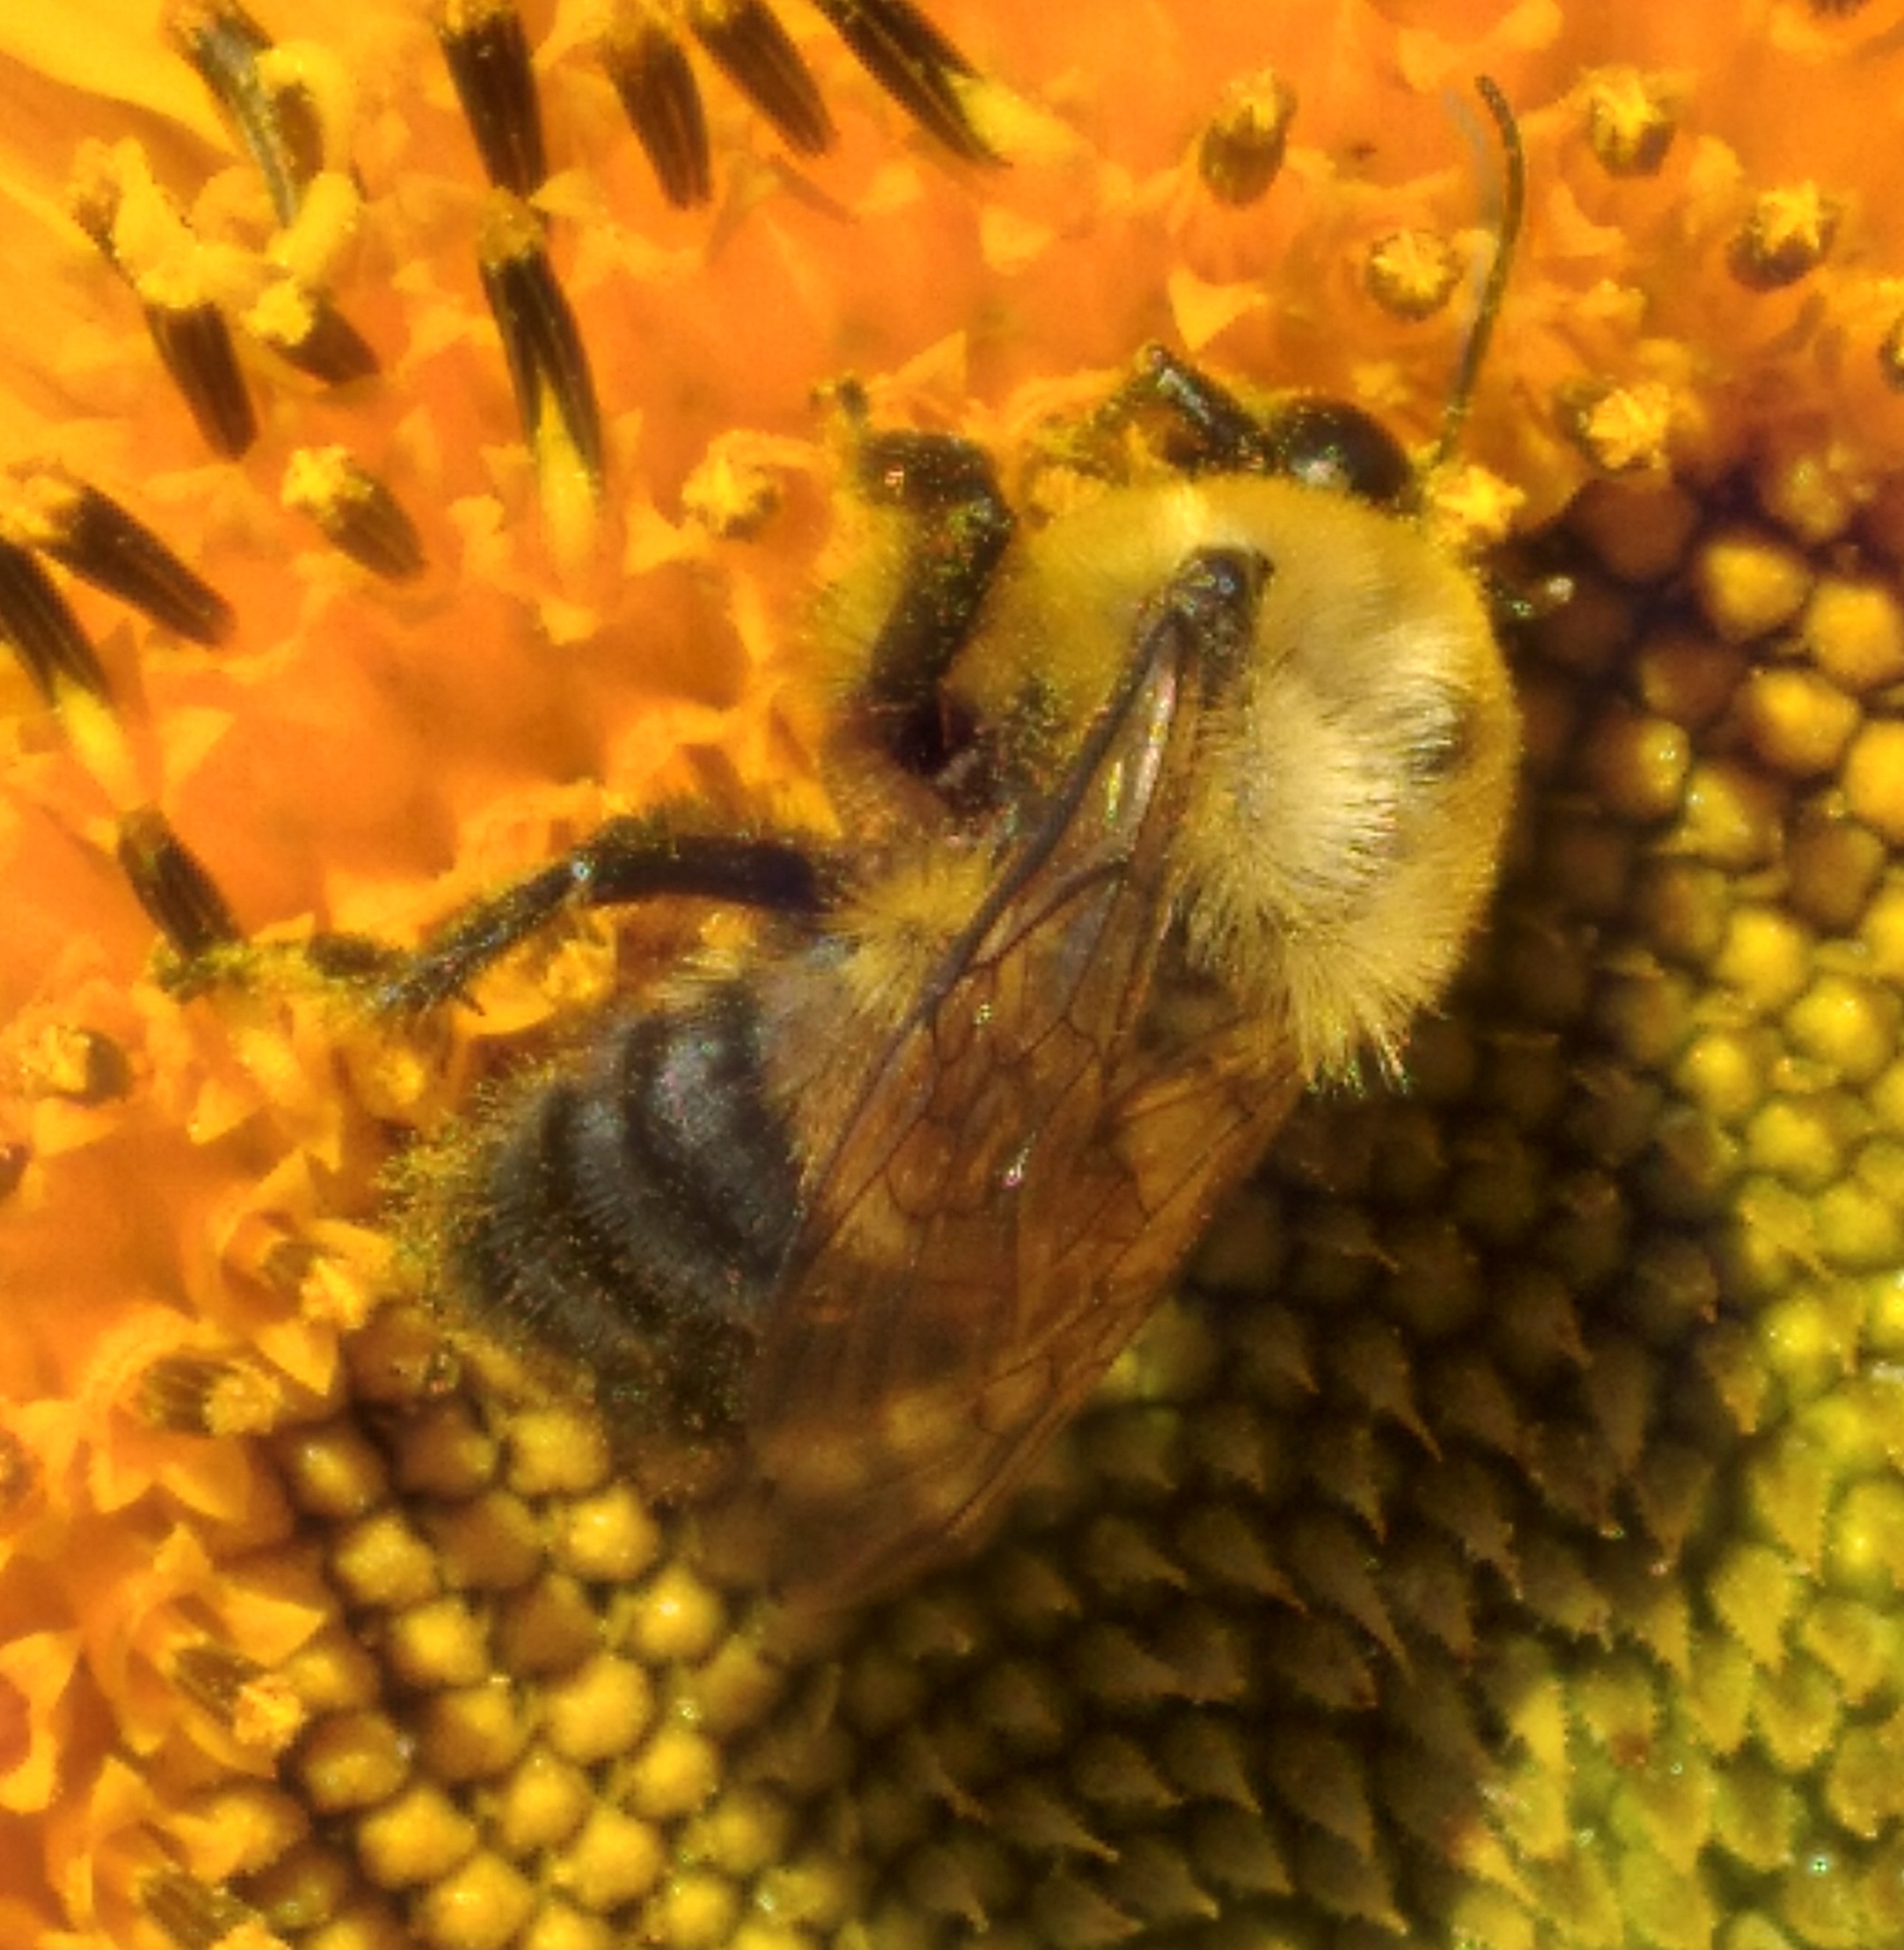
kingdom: Animalia
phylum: Arthropoda
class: Insecta
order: Hymenoptera
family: Apidae
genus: Bombus
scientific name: Bombus griseocollis
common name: Brown-belted bumble bee
